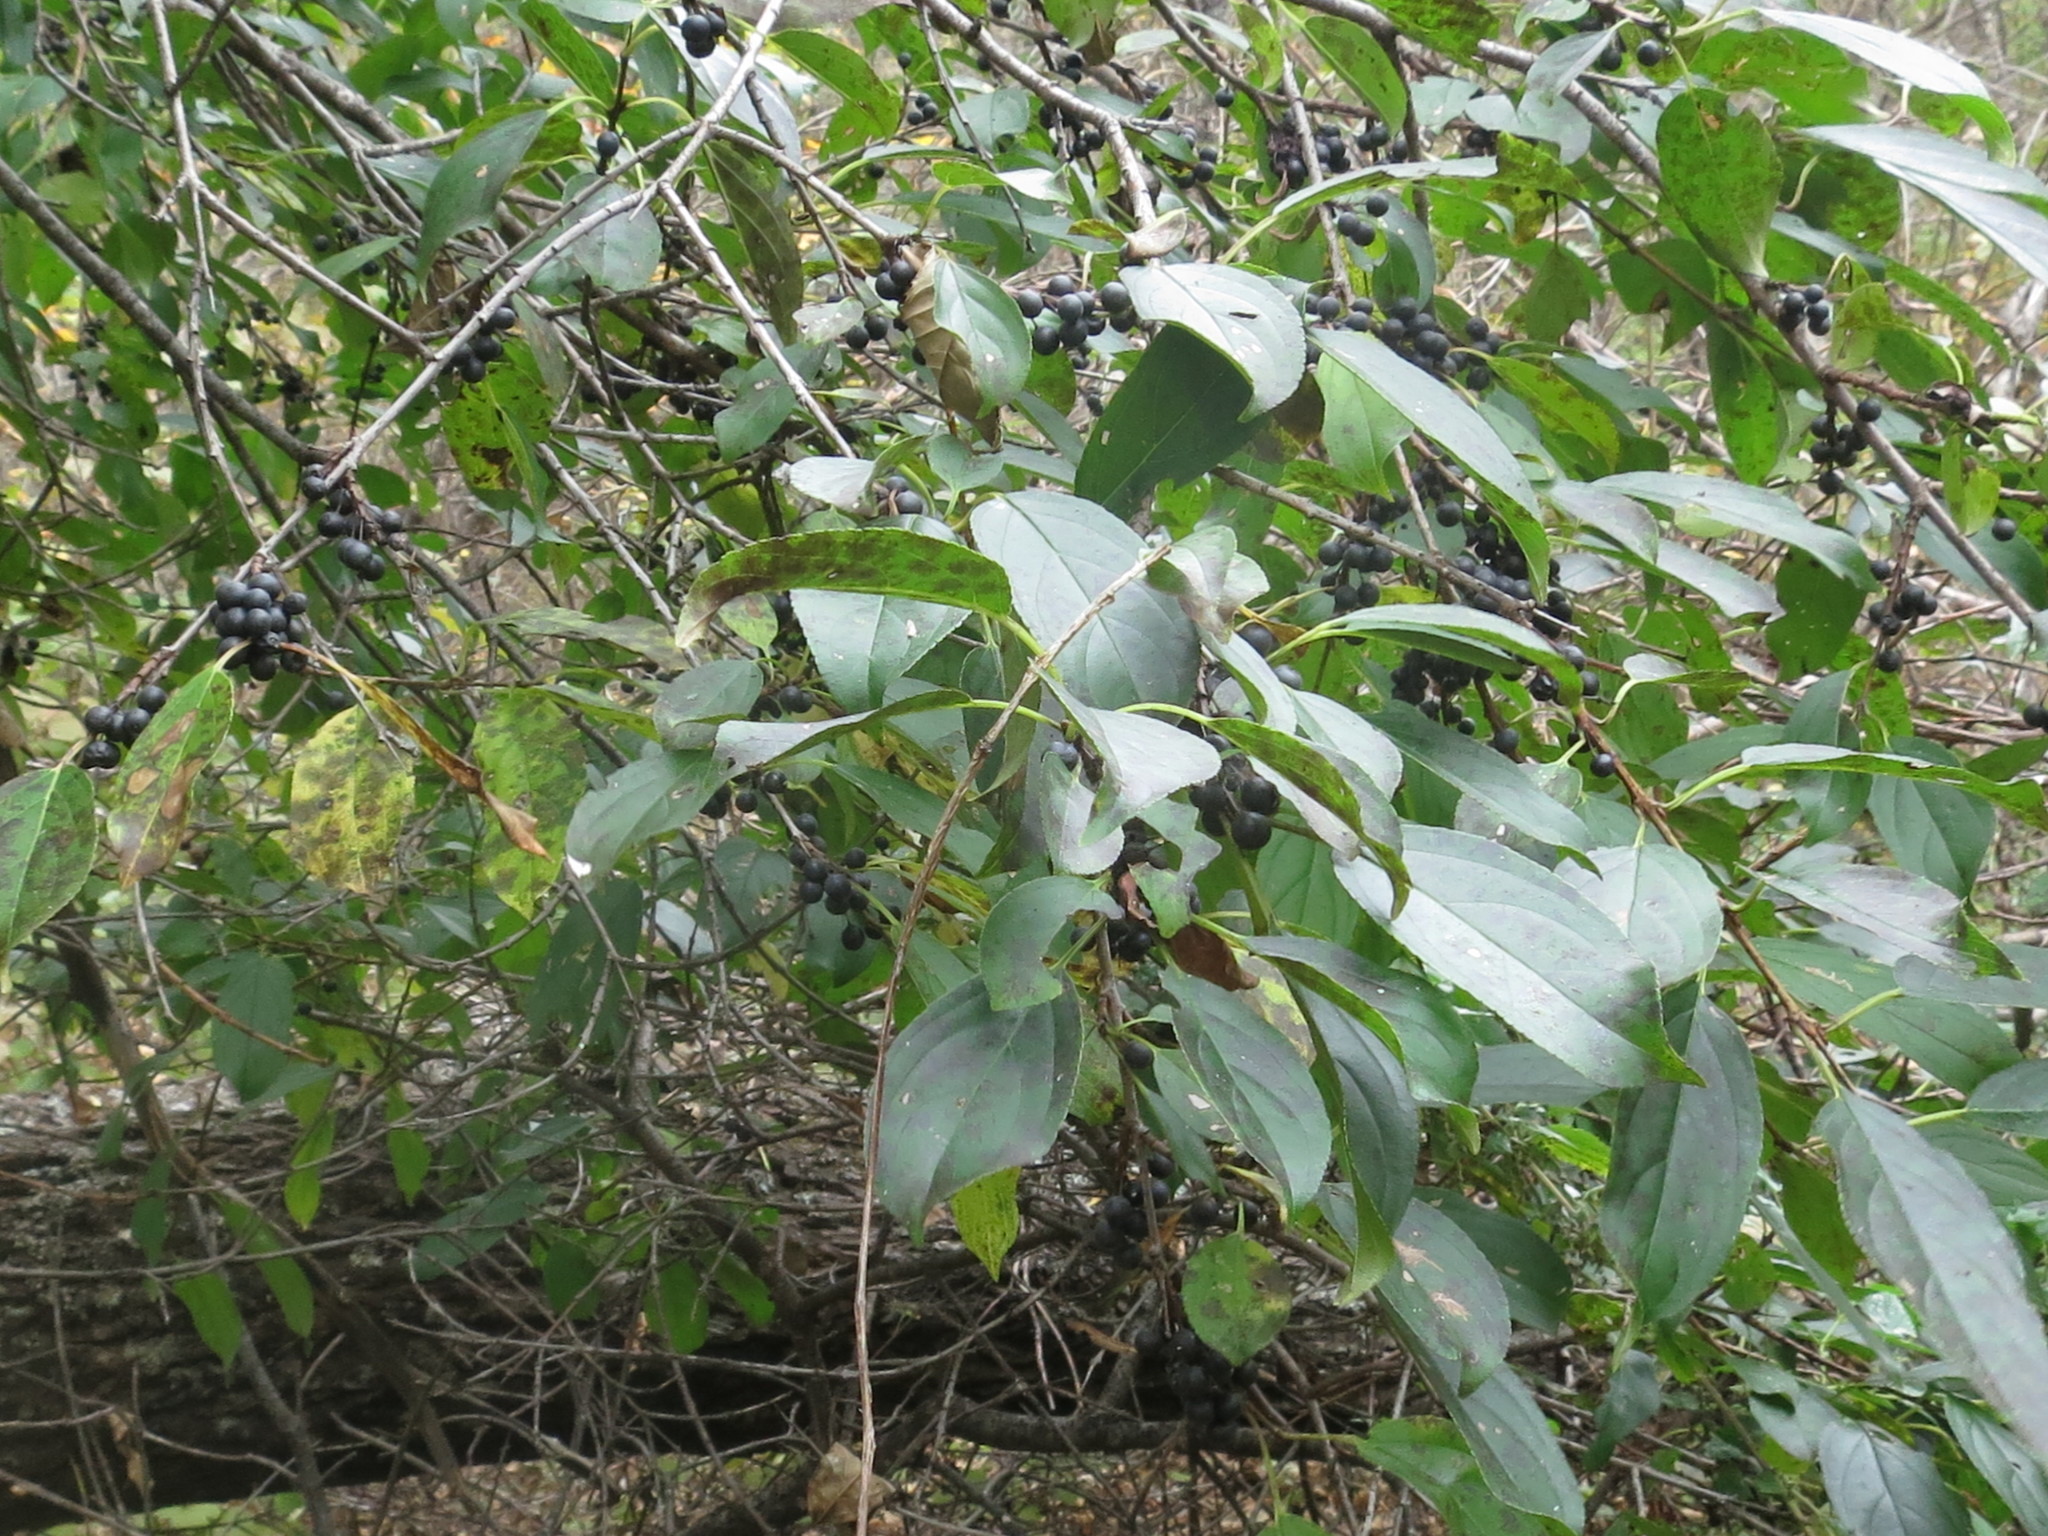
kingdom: Plantae
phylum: Tracheophyta
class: Magnoliopsida
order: Rosales
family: Rhamnaceae
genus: Rhamnus
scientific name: Rhamnus ussuriensis
